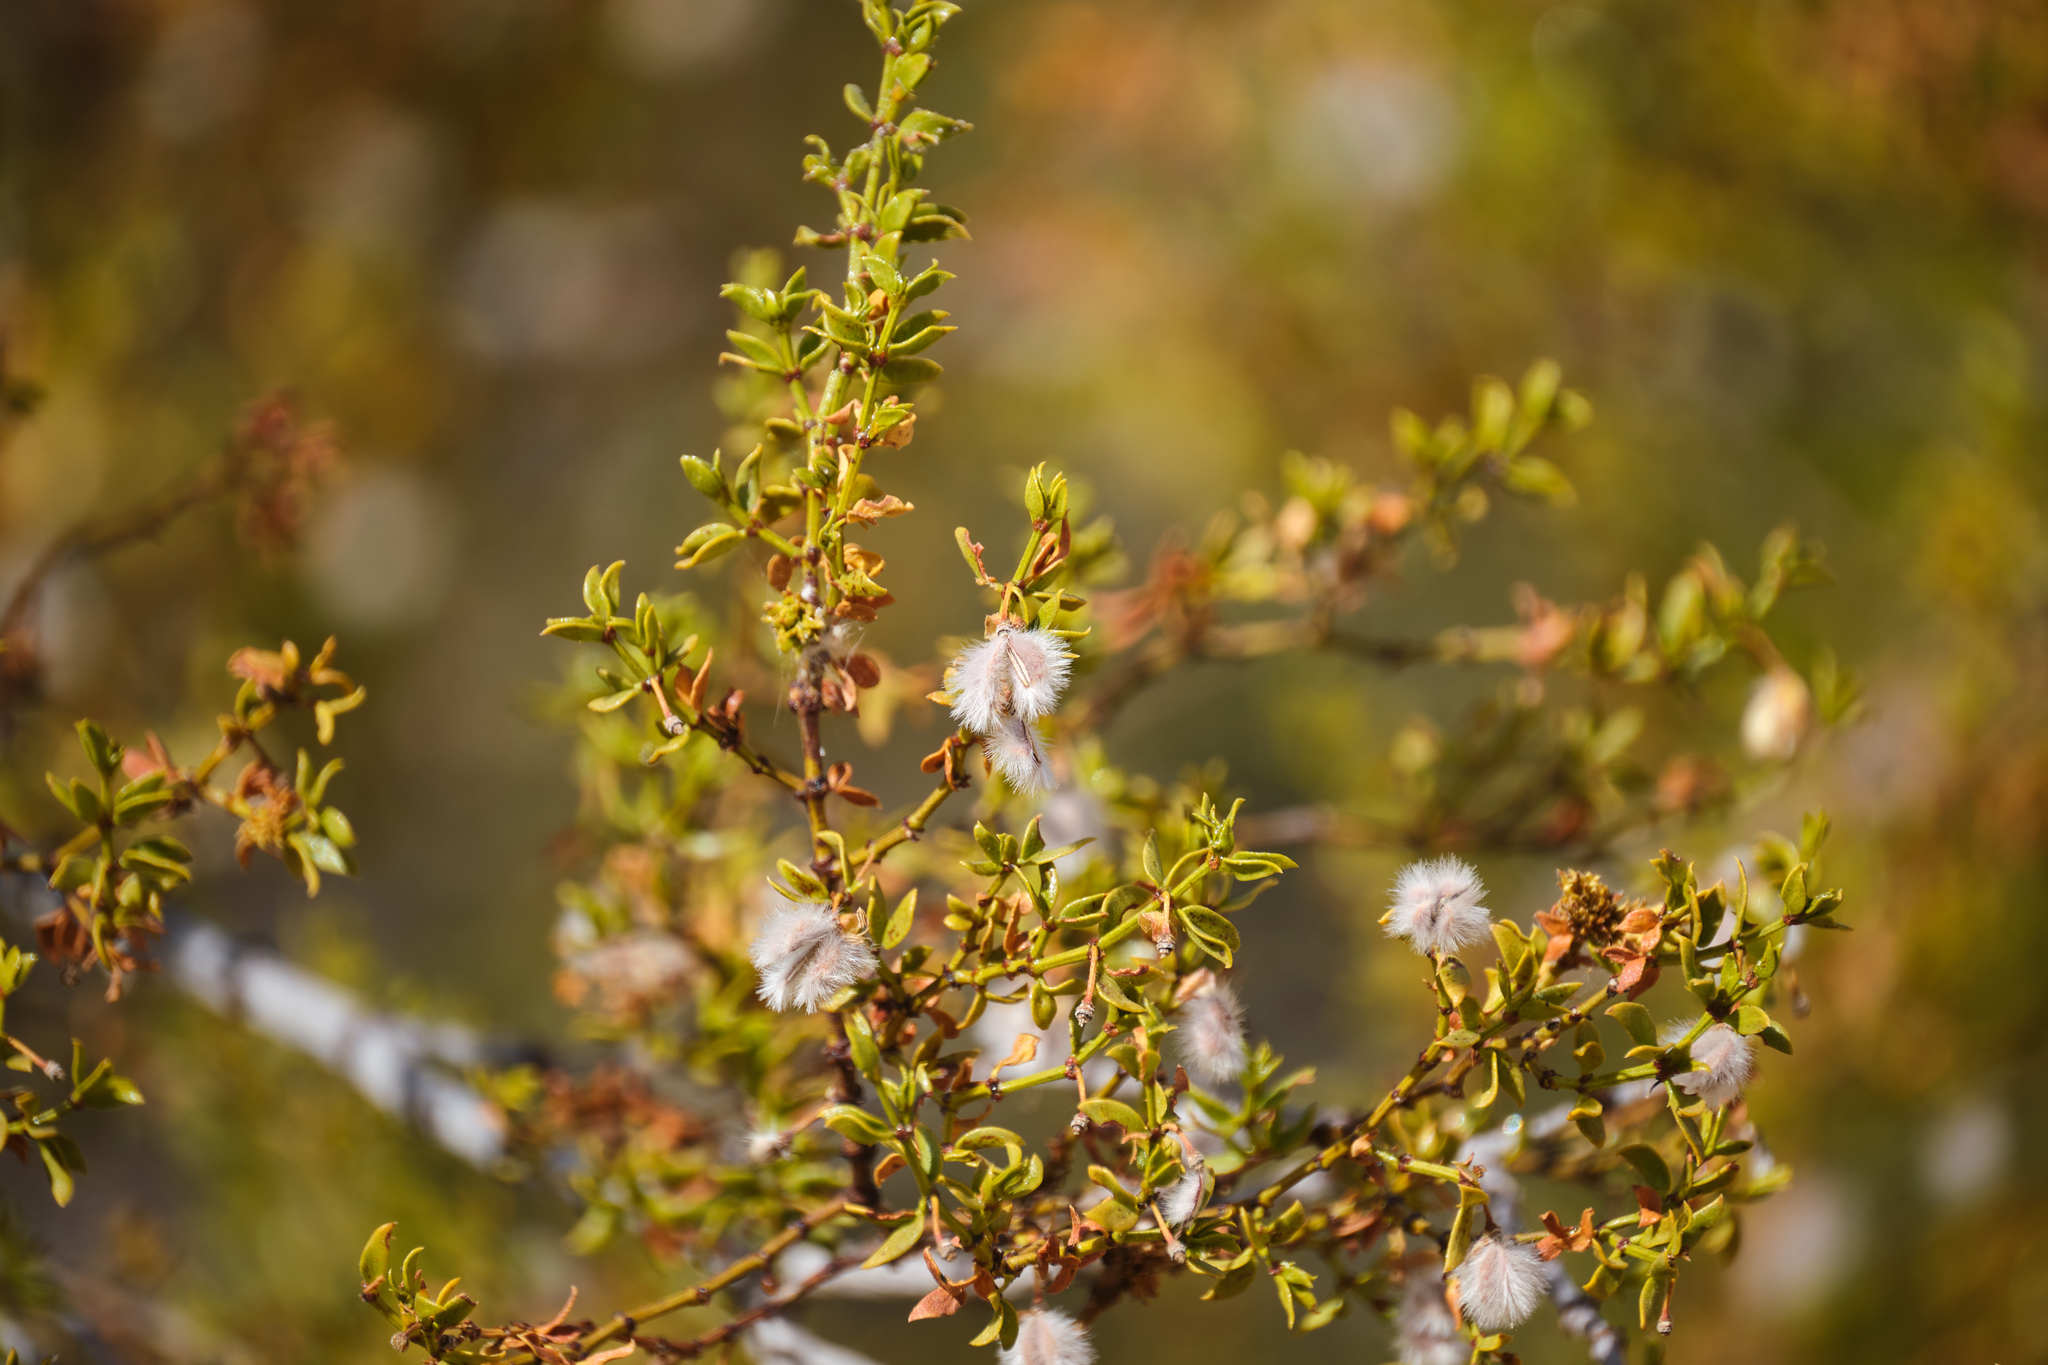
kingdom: Plantae
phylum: Tracheophyta
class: Magnoliopsida
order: Zygophyllales
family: Zygophyllaceae
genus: Larrea
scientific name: Larrea tridentata
